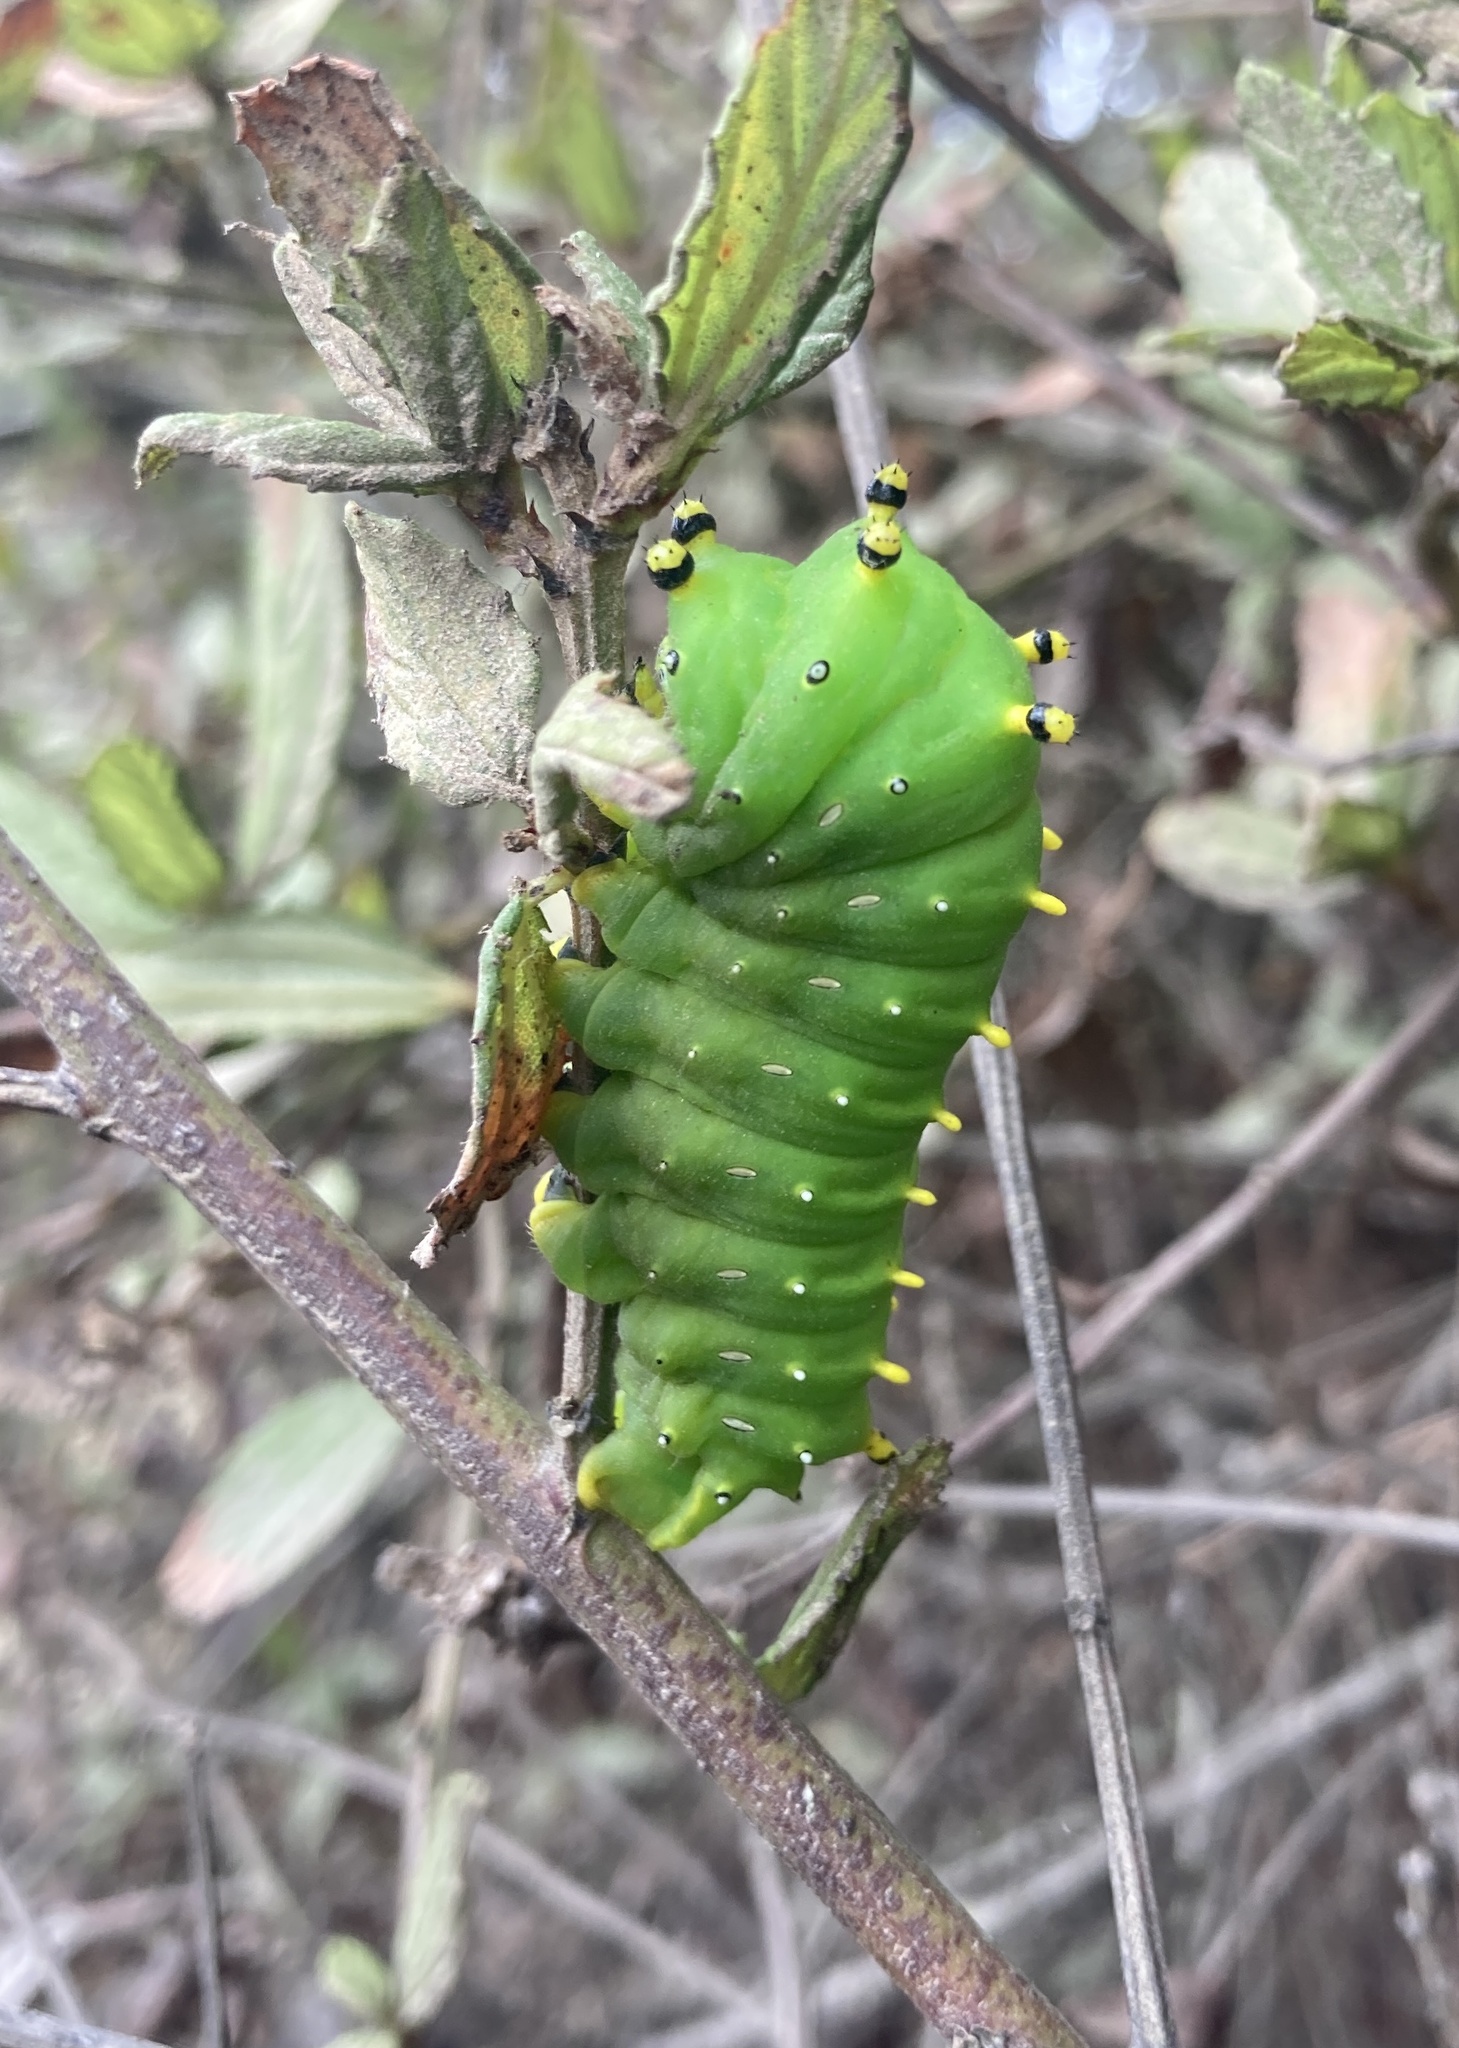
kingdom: Animalia
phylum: Arthropoda
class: Insecta
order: Lepidoptera
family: Saturniidae
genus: Hyalophora
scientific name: Hyalophora euryalus
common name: Ceanothus silkmoth
